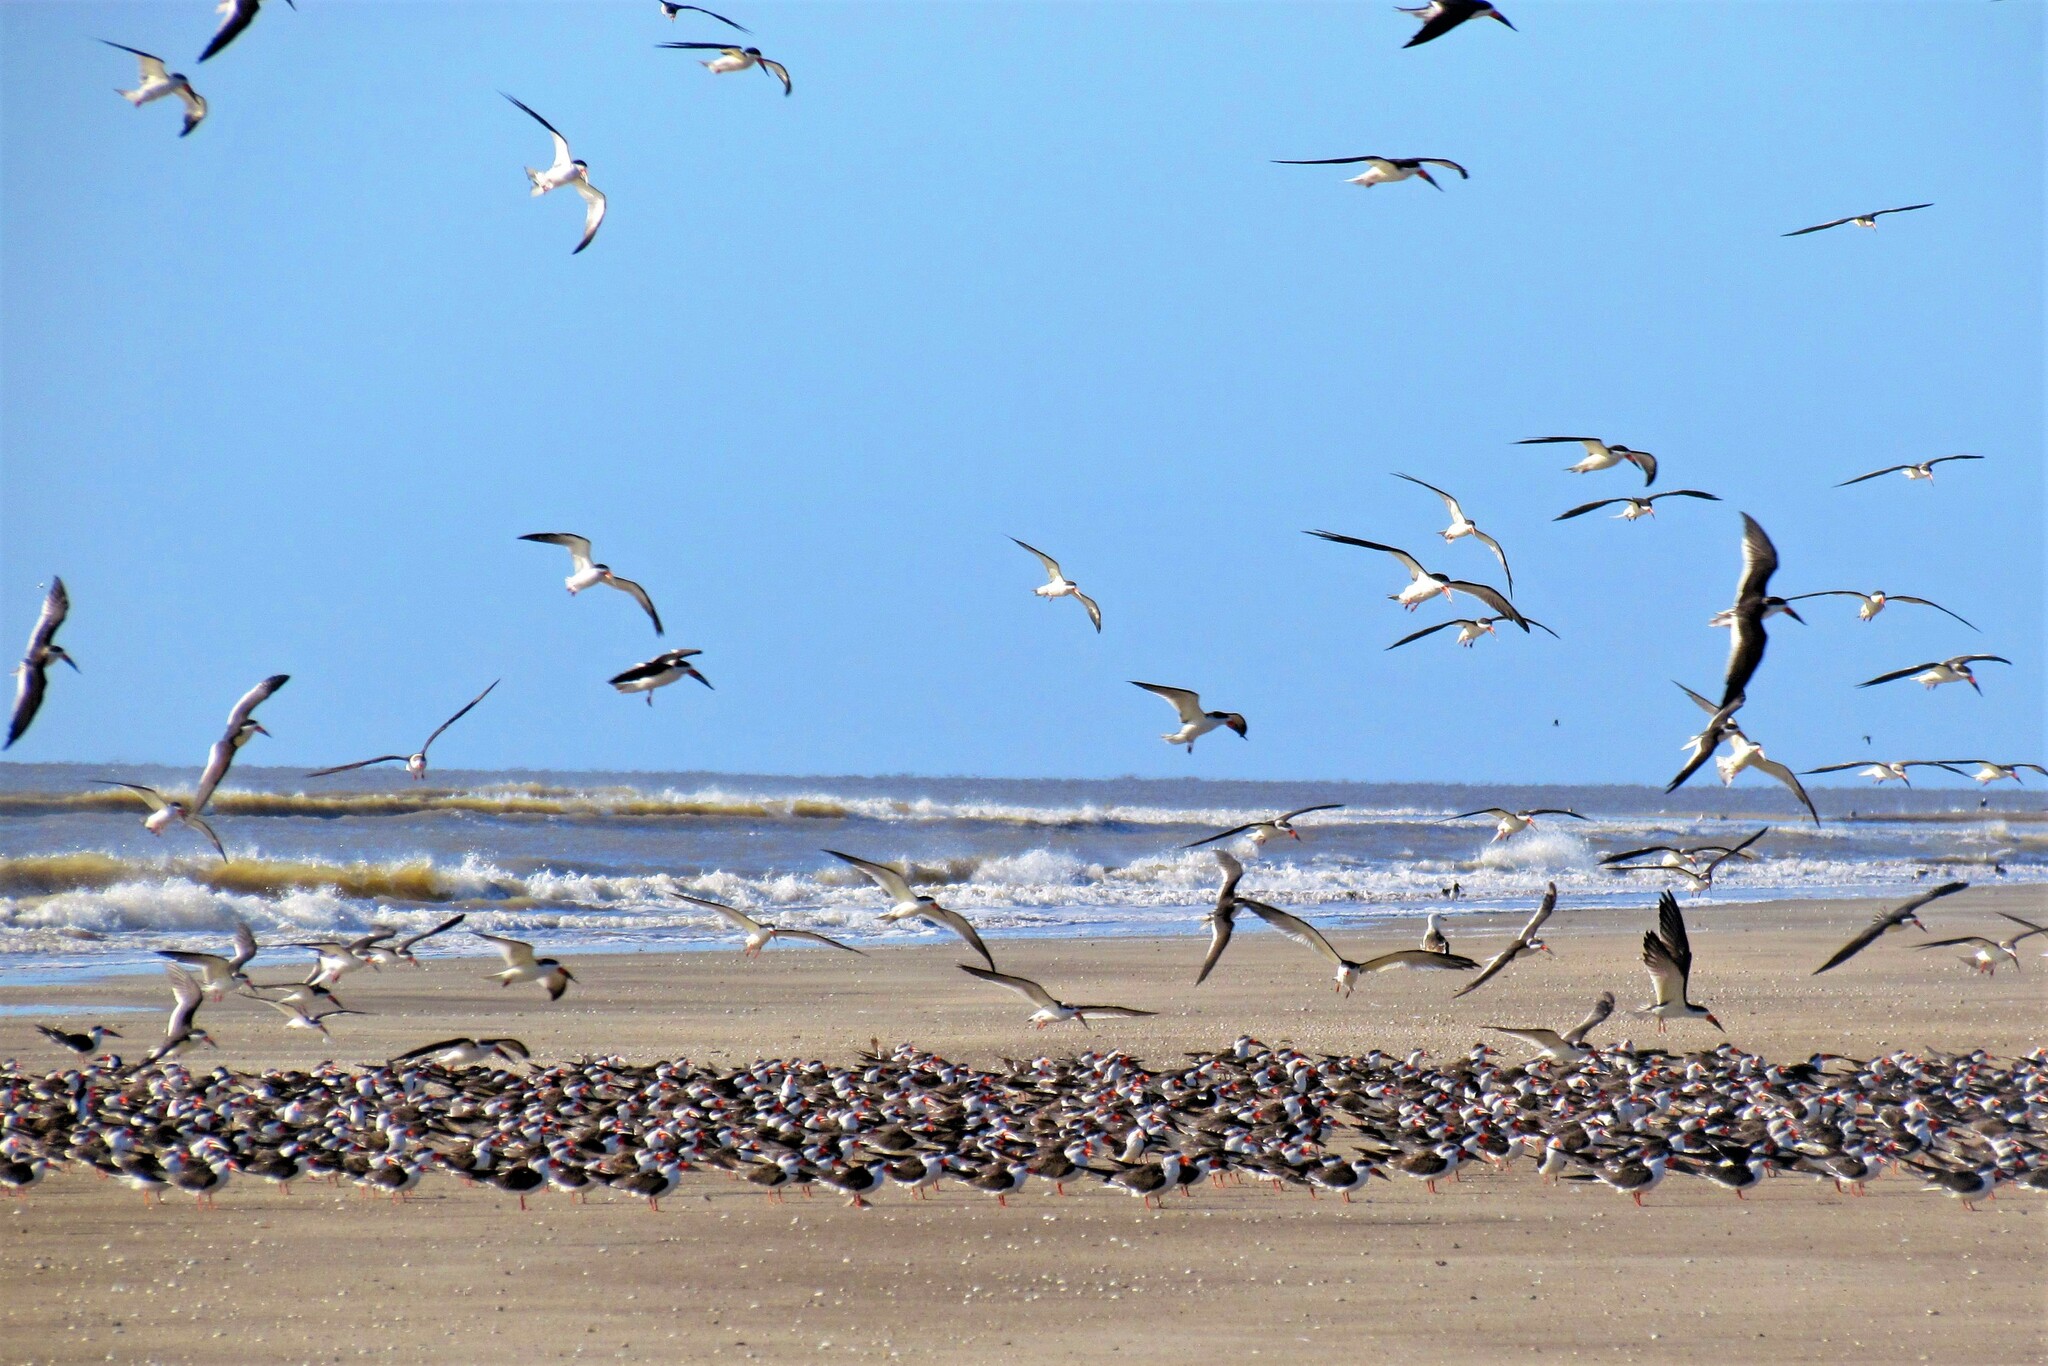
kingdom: Animalia
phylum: Chordata
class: Aves
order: Charadriiformes
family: Laridae
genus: Rynchops
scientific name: Rynchops niger
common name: Black skimmer
